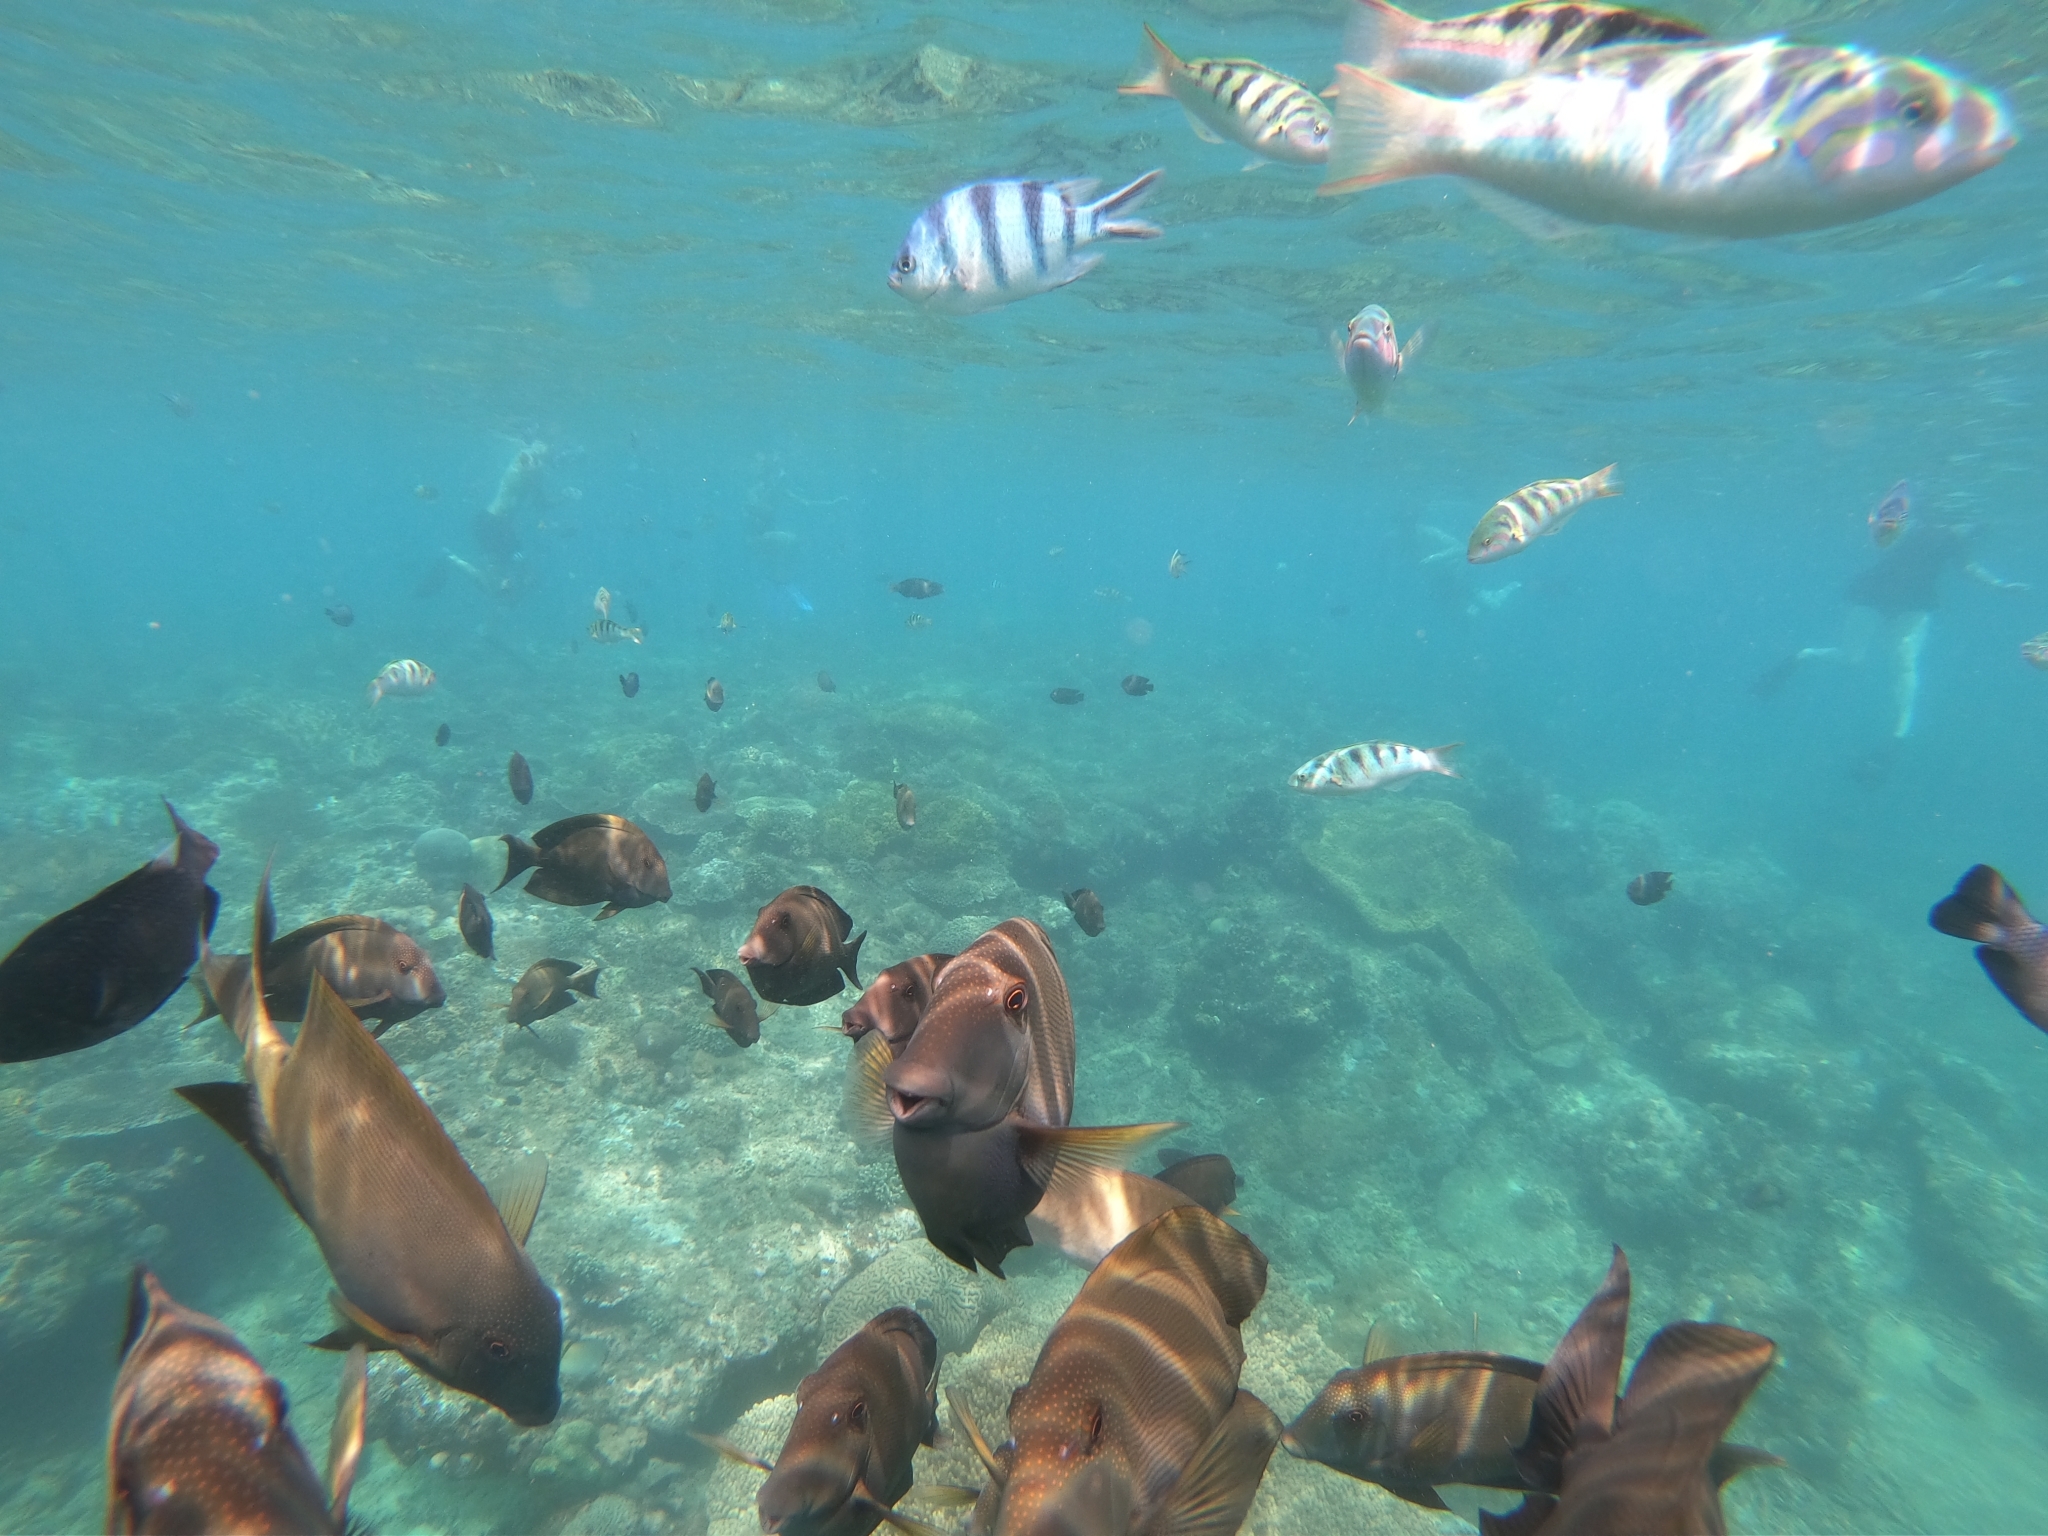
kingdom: Animalia
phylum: Chordata
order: Perciformes
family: Acanthuridae
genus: Ctenochaetus
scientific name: Ctenochaetus striatus
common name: Bristle-toothed surgeonfish
